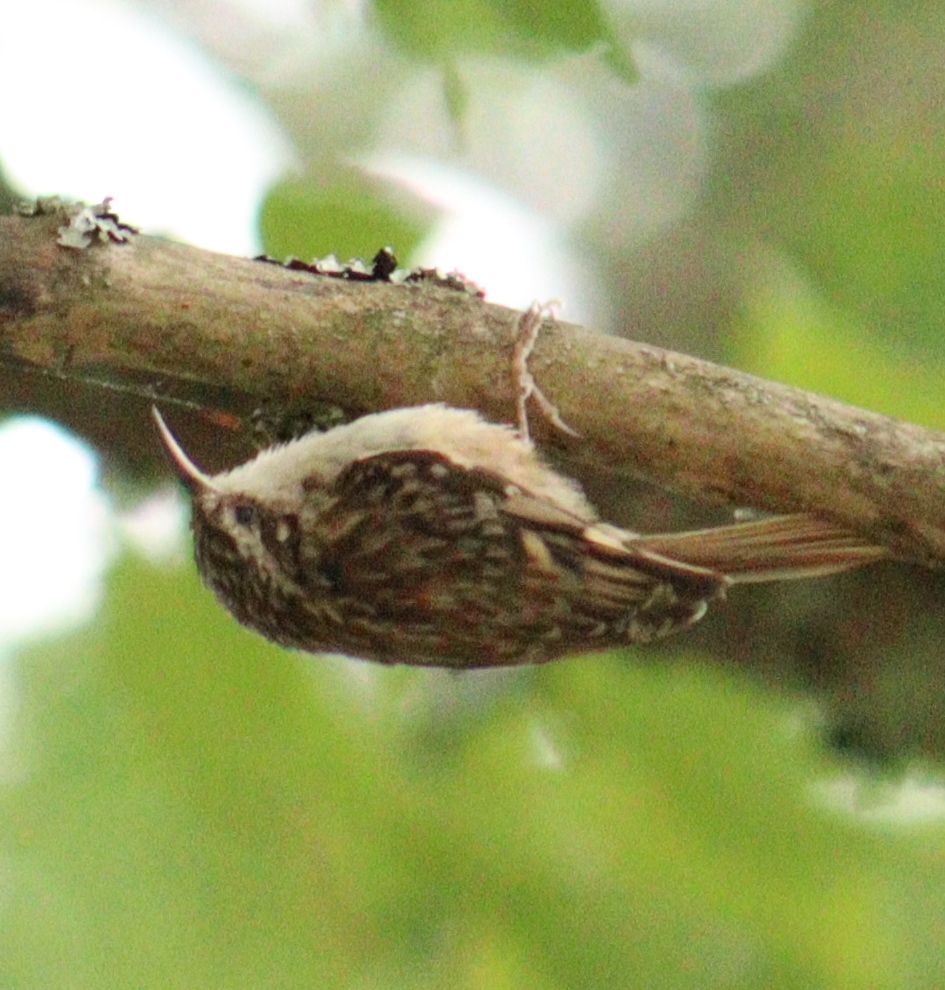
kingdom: Animalia
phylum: Chordata
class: Aves
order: Passeriformes
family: Certhiidae
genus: Certhia
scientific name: Certhia brachydactyla
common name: Short-toed treecreeper
